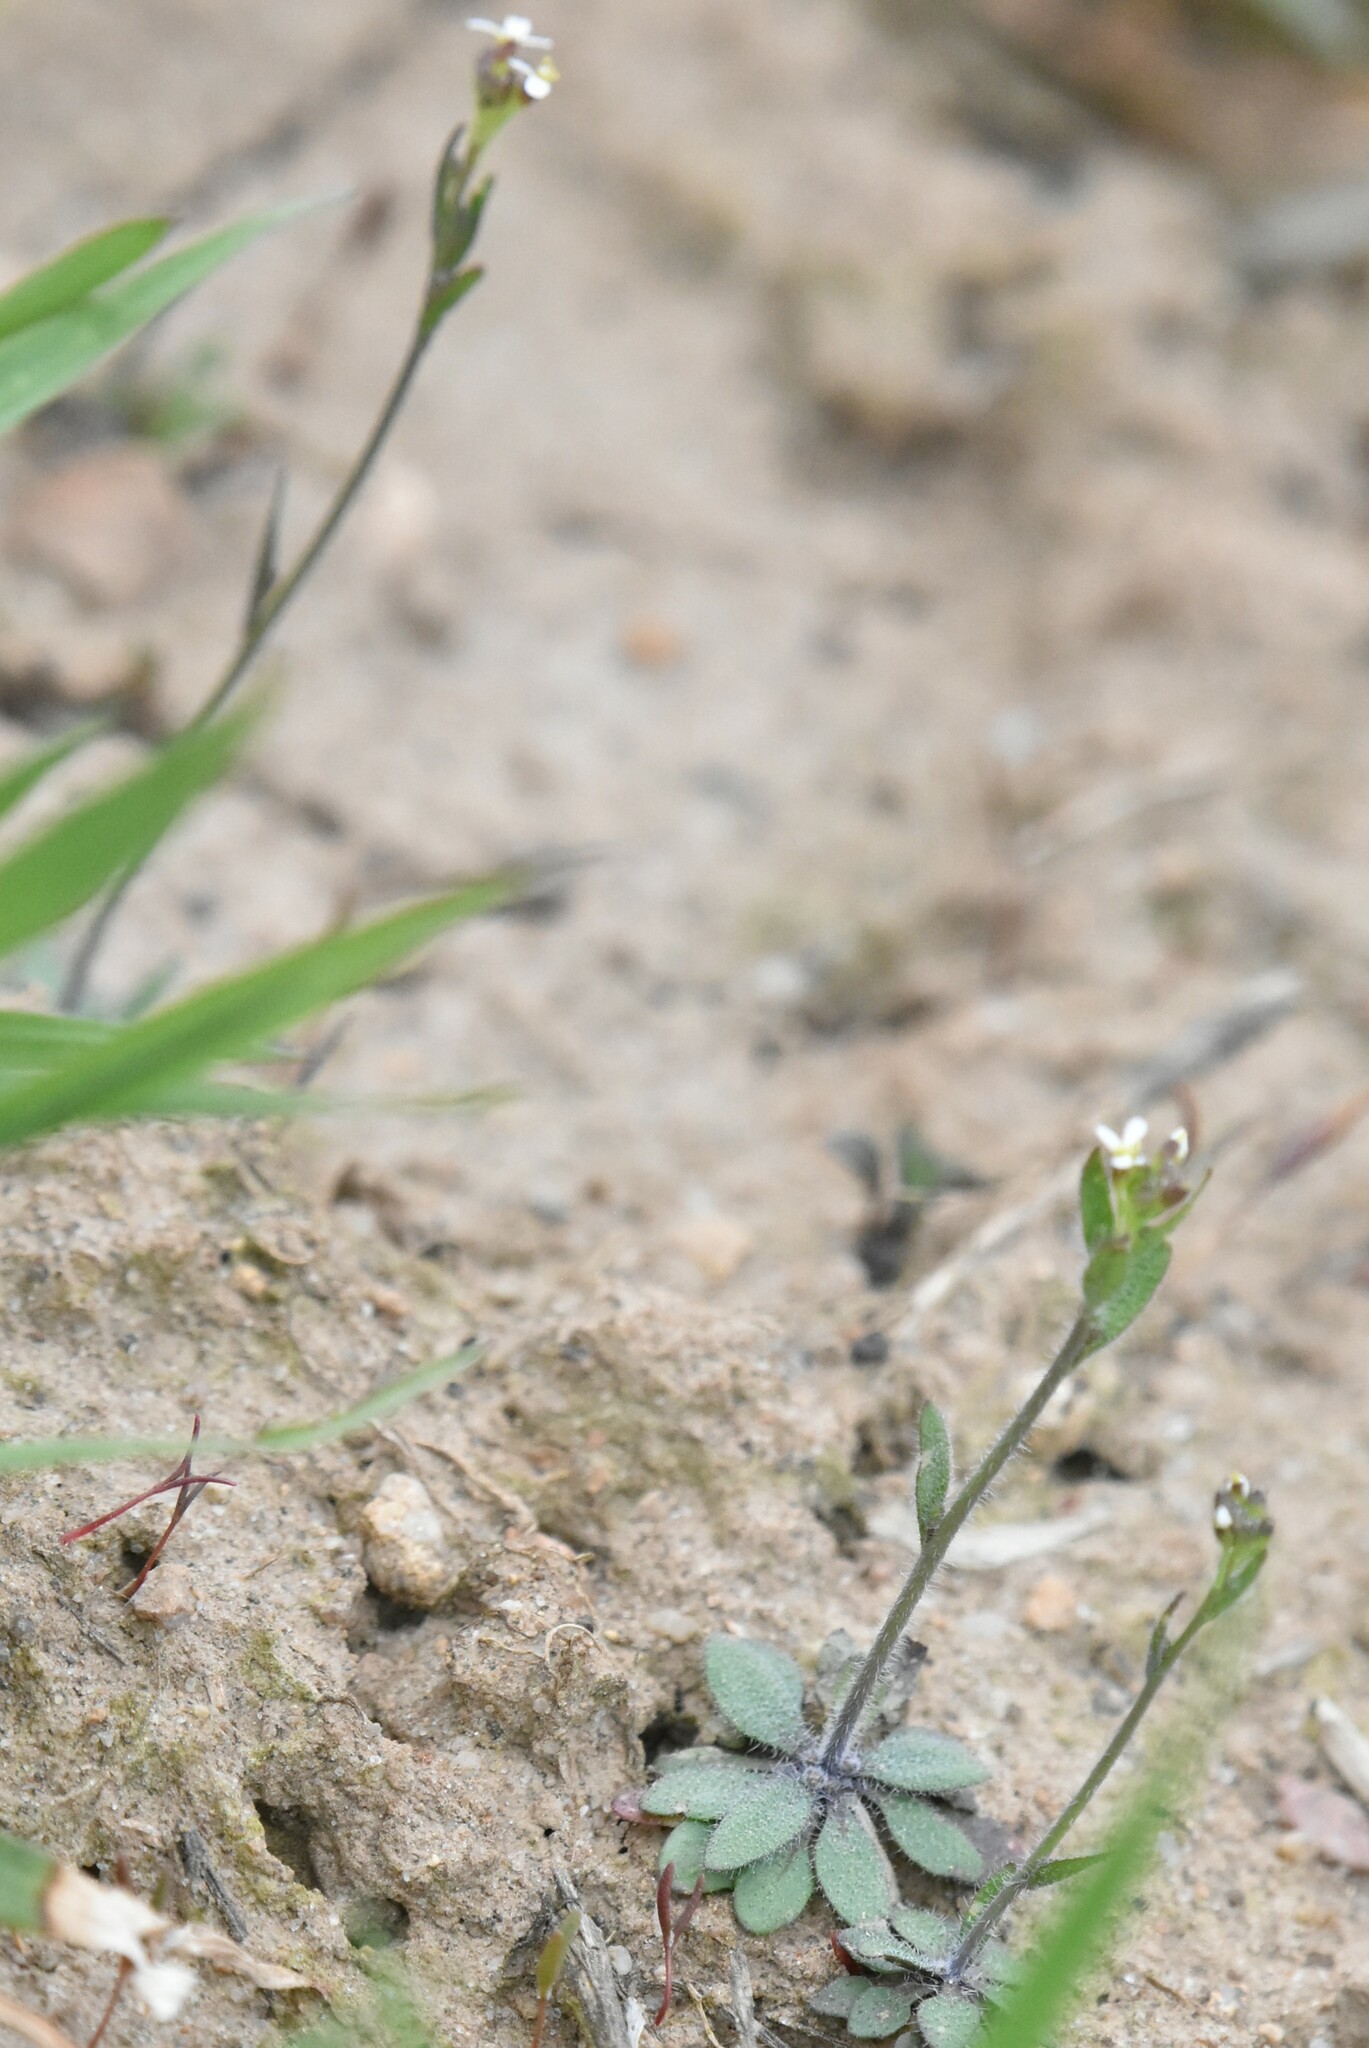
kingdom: Plantae
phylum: Tracheophyta
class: Magnoliopsida
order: Brassicales
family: Brassicaceae
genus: Arabidopsis
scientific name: Arabidopsis thaliana
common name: Thale cress
